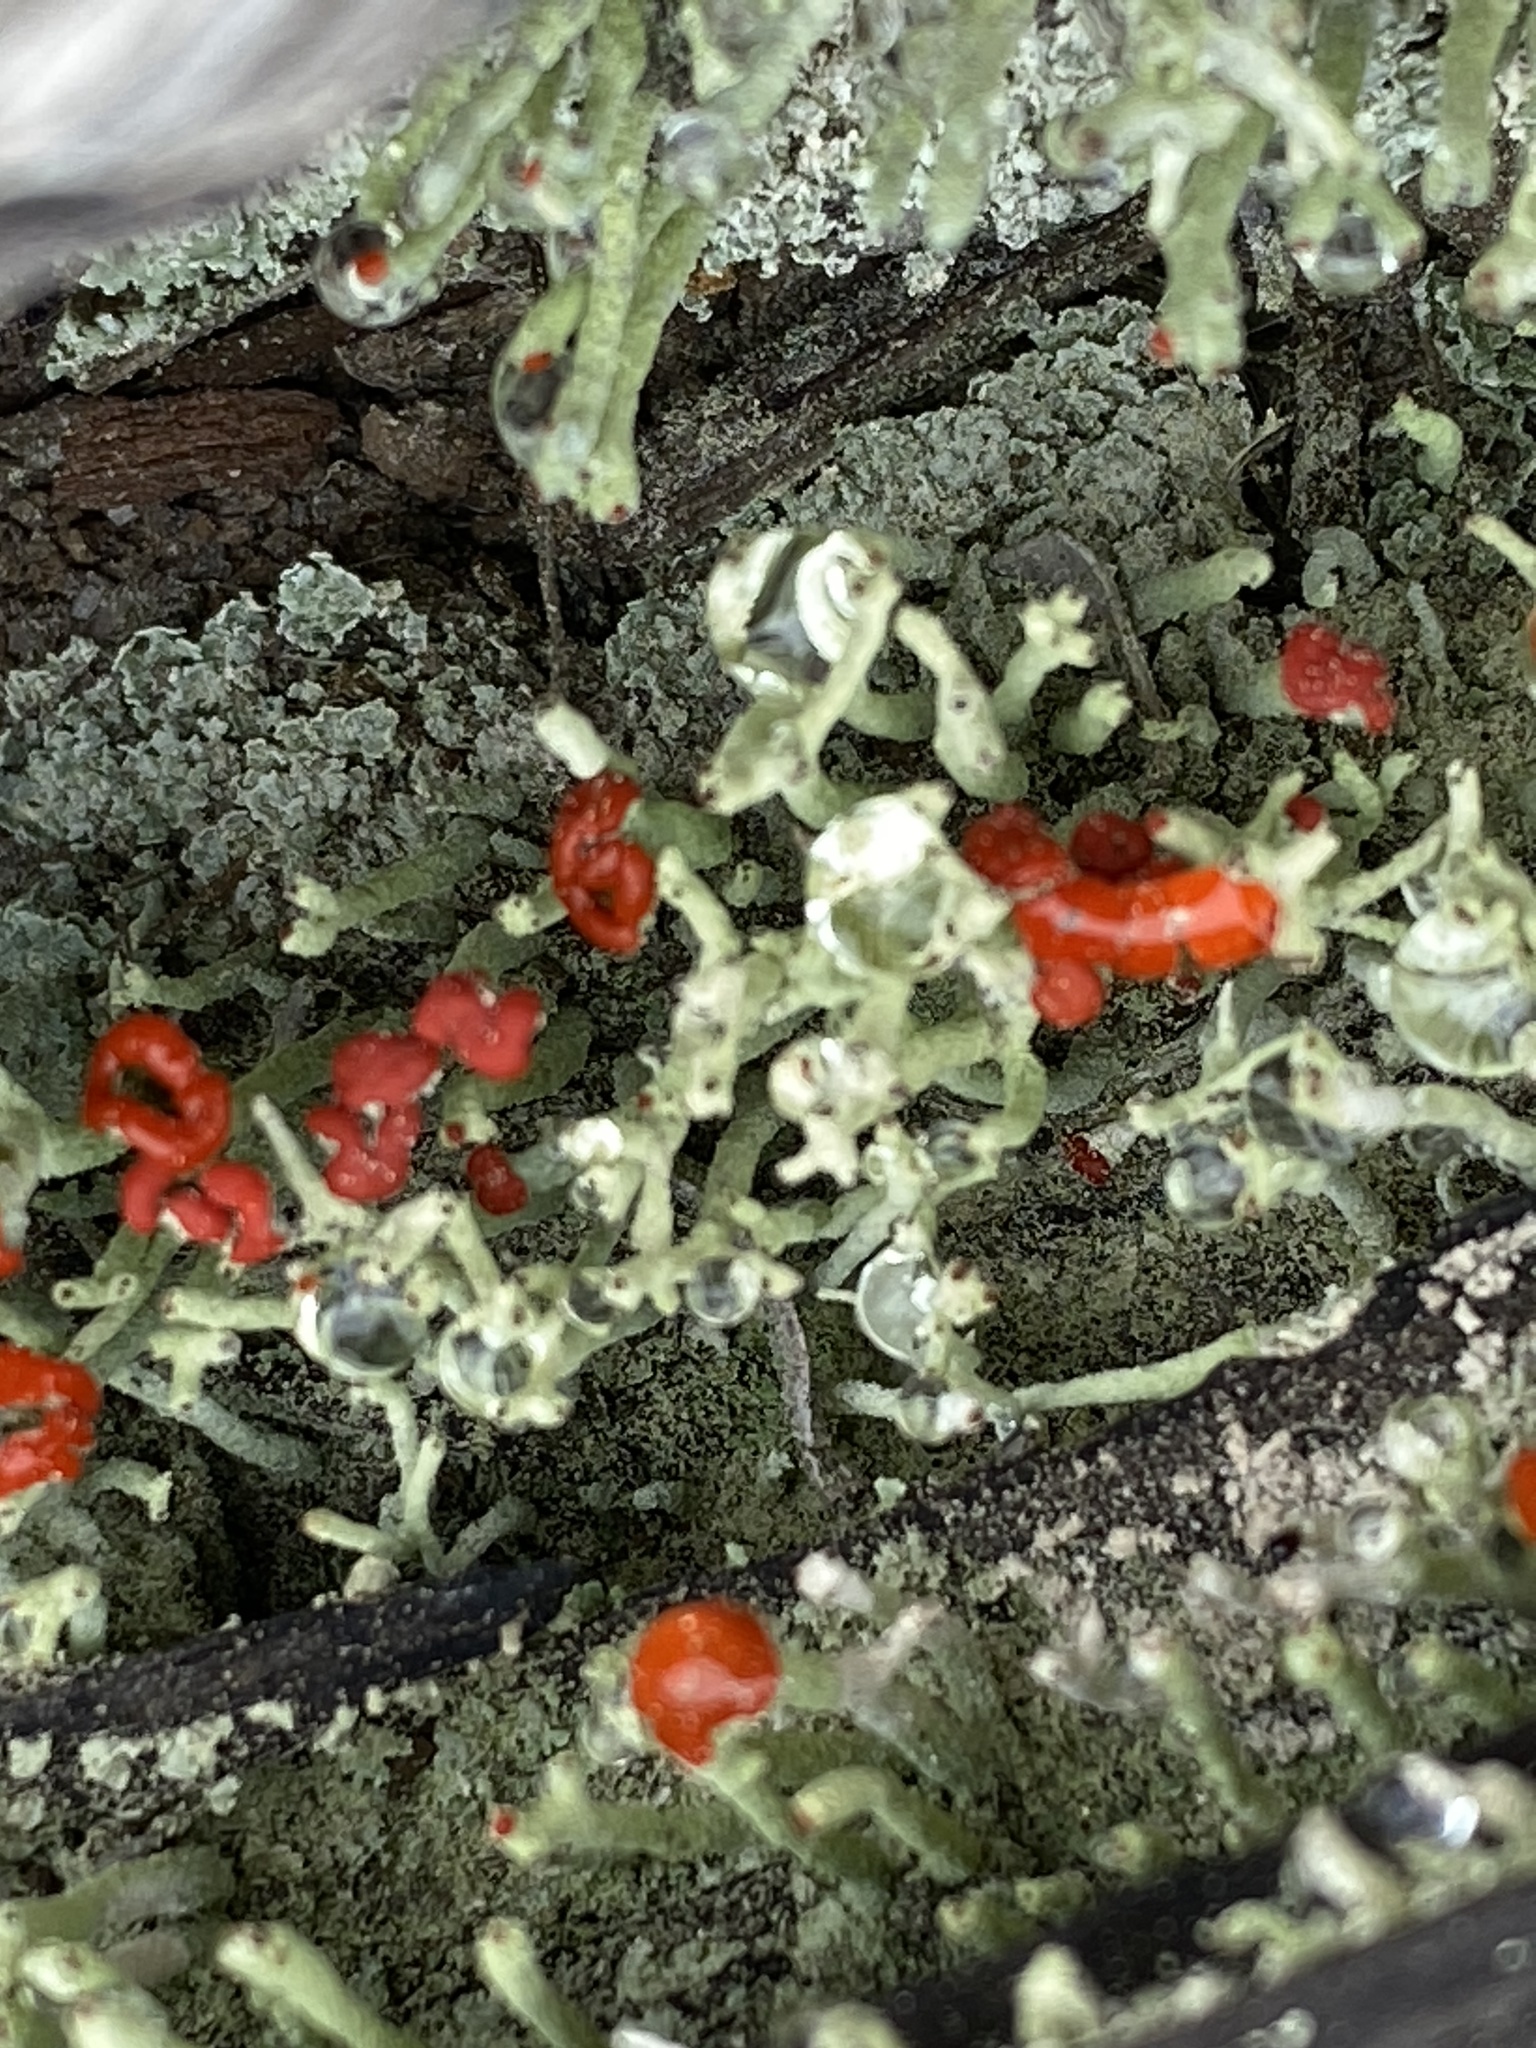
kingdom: Fungi
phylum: Ascomycota
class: Lecanoromycetes
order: Lecanorales
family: Cladoniaceae
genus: Cladonia
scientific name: Cladonia macilenta
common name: Lipstick powderhorn
